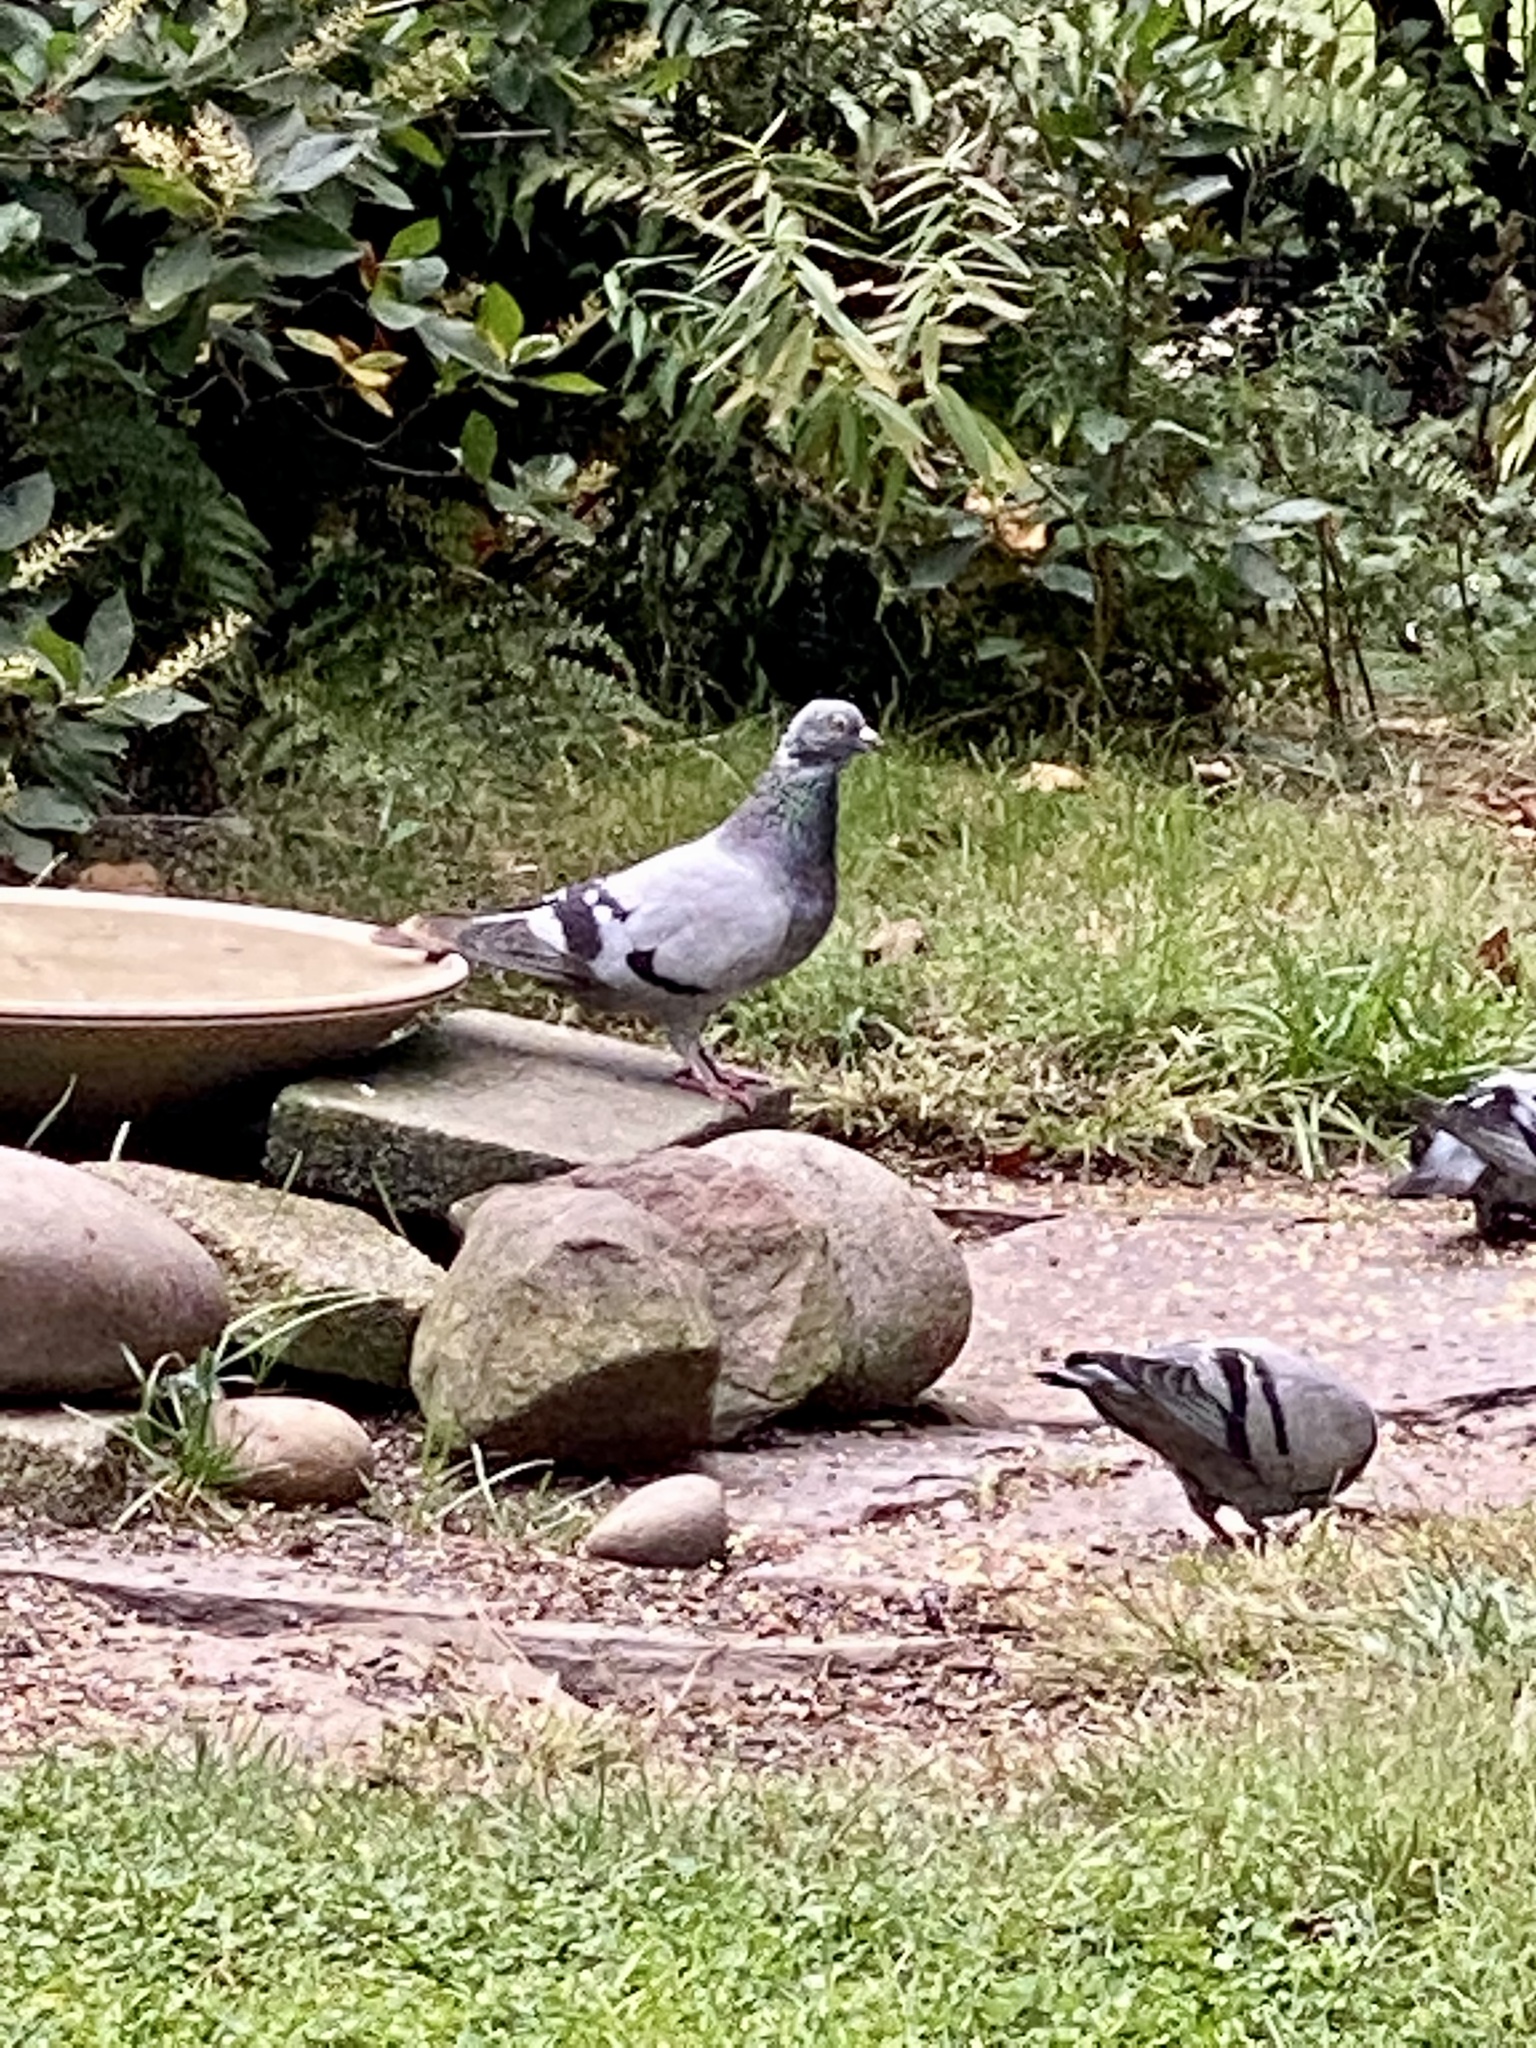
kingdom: Animalia
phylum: Chordata
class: Aves
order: Columbiformes
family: Columbidae
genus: Columba
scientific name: Columba livia
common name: Rock pigeon
